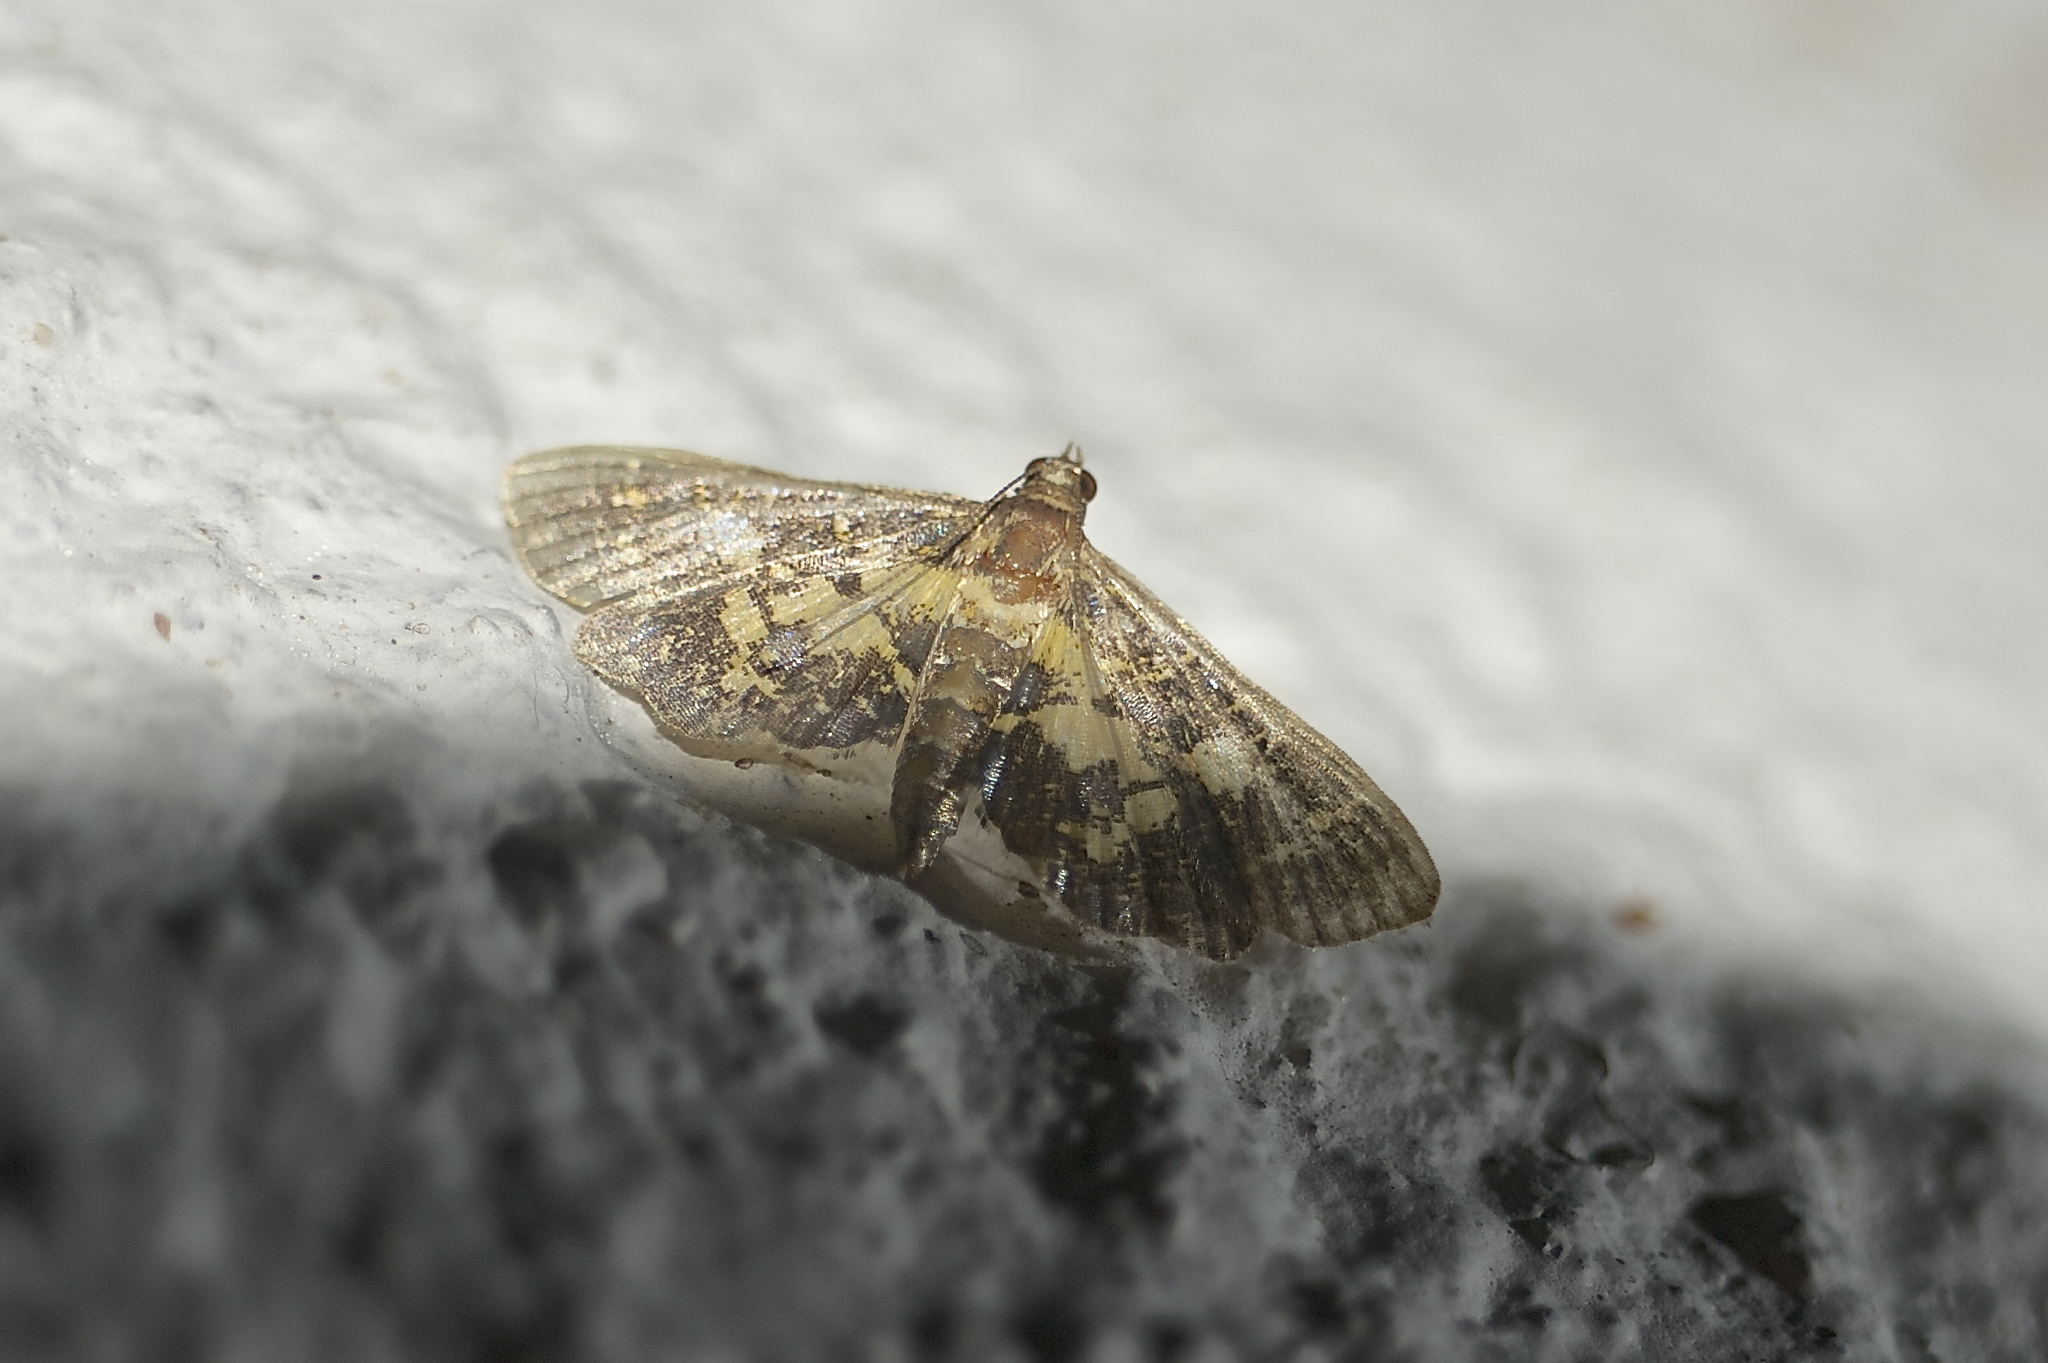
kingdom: Animalia
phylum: Arthropoda
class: Insecta
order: Lepidoptera
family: Crambidae
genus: Eurrhyparodes
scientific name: Eurrhyparodes bracteolalis
